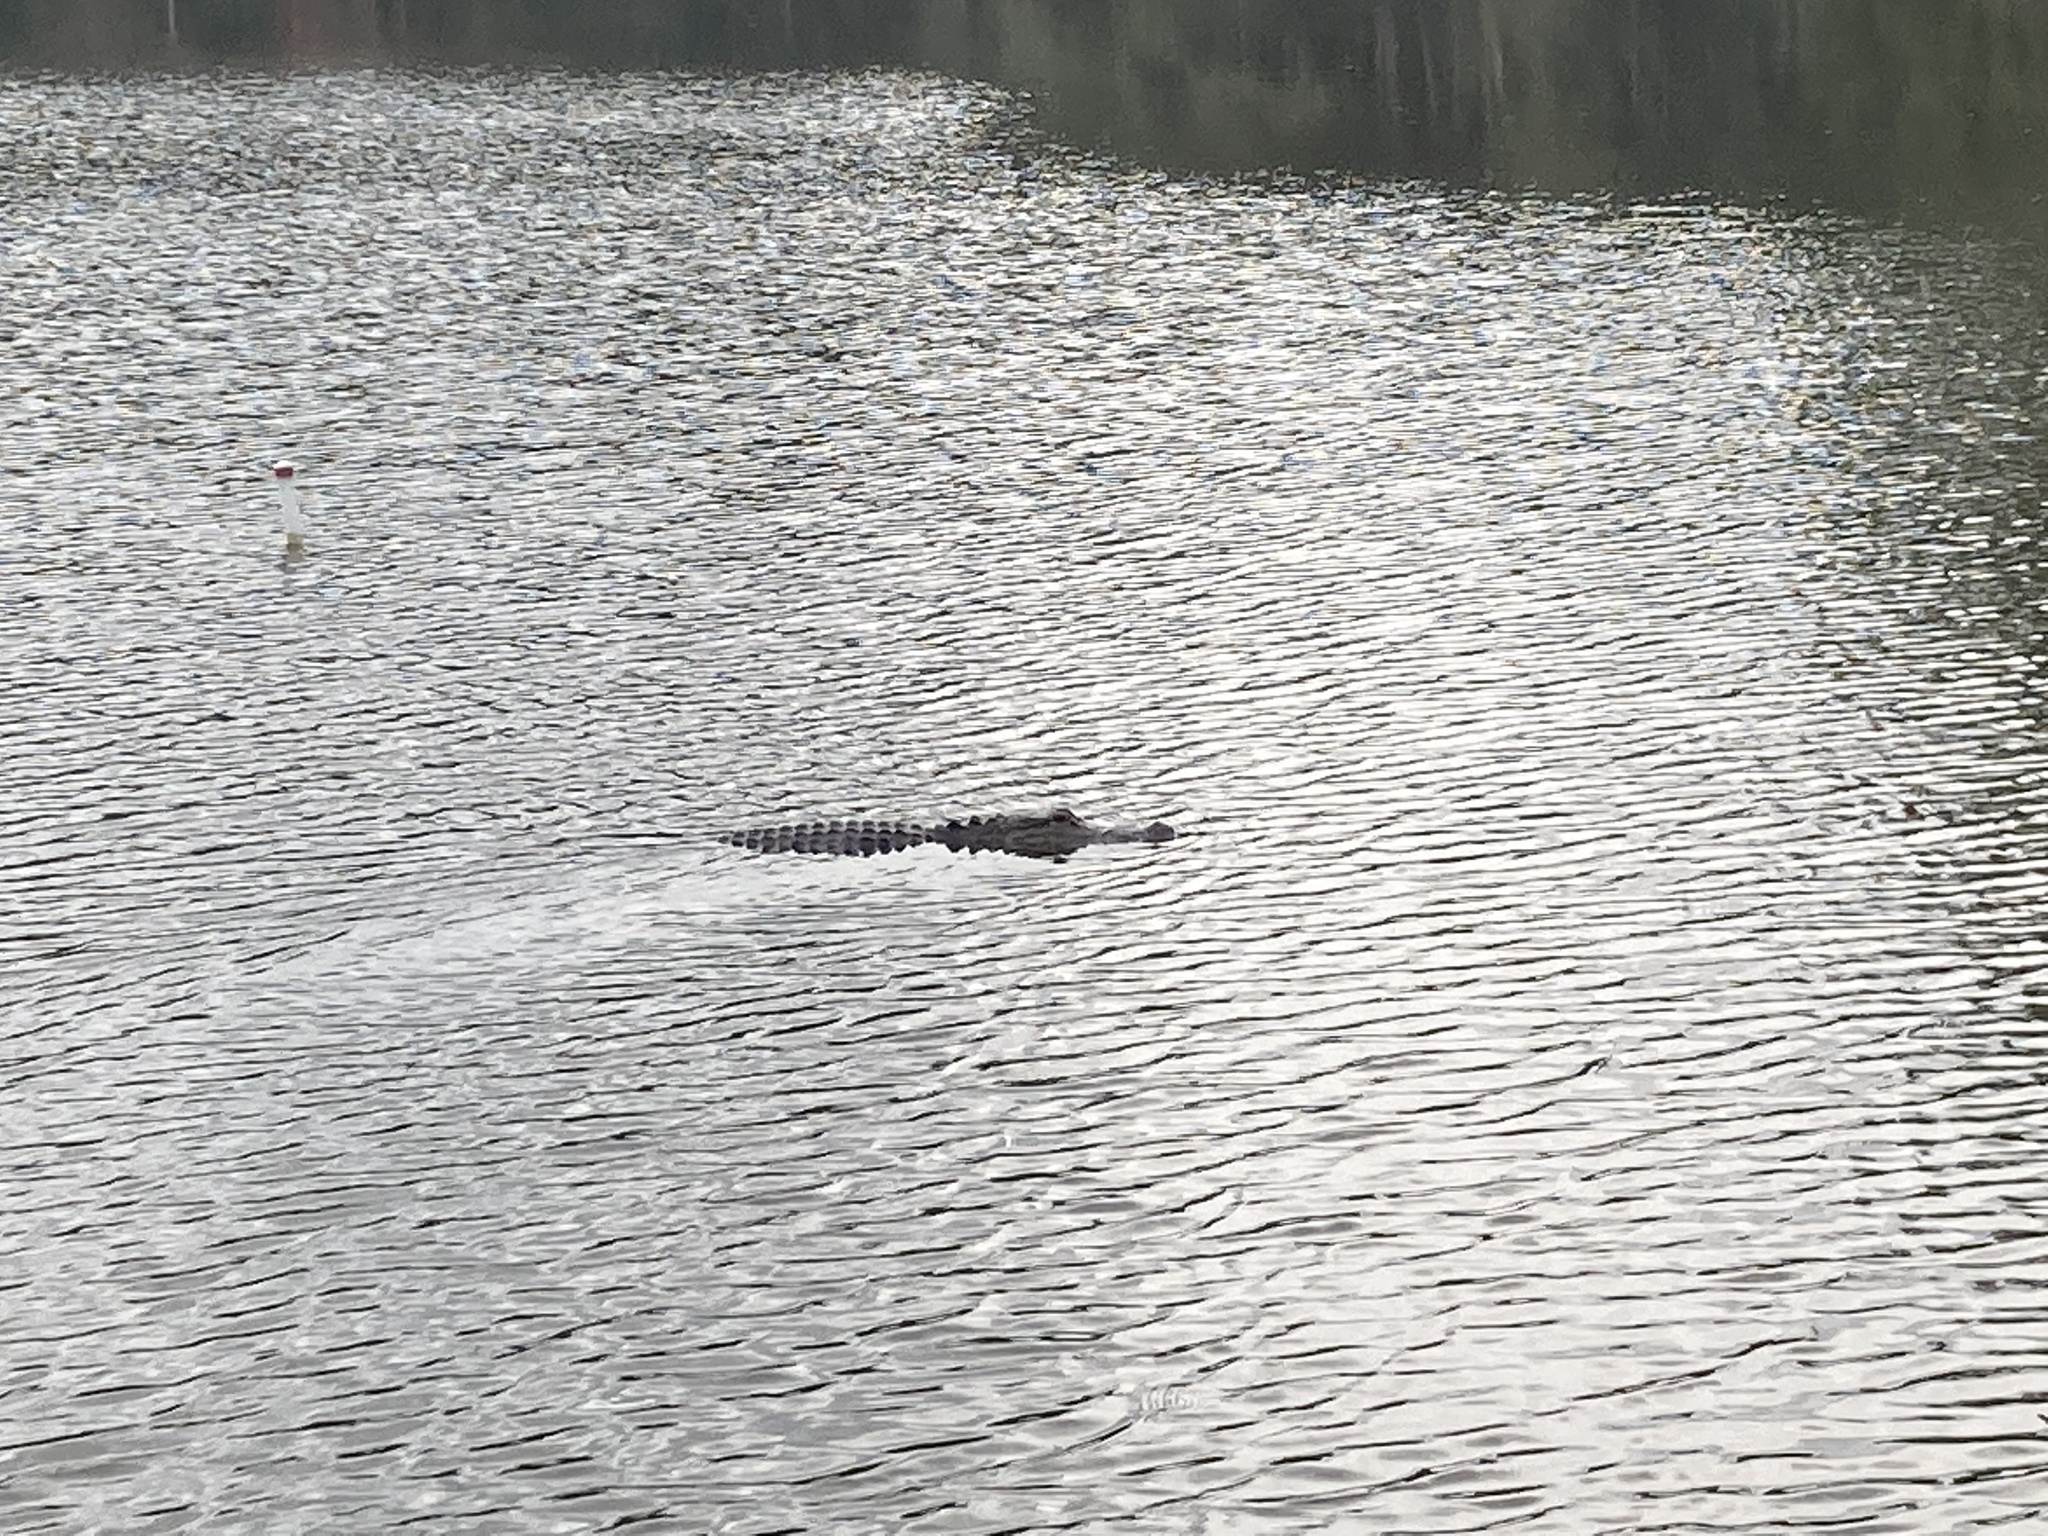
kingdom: Animalia
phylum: Chordata
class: Crocodylia
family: Alligatoridae
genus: Alligator
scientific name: Alligator mississippiensis
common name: American alligator
